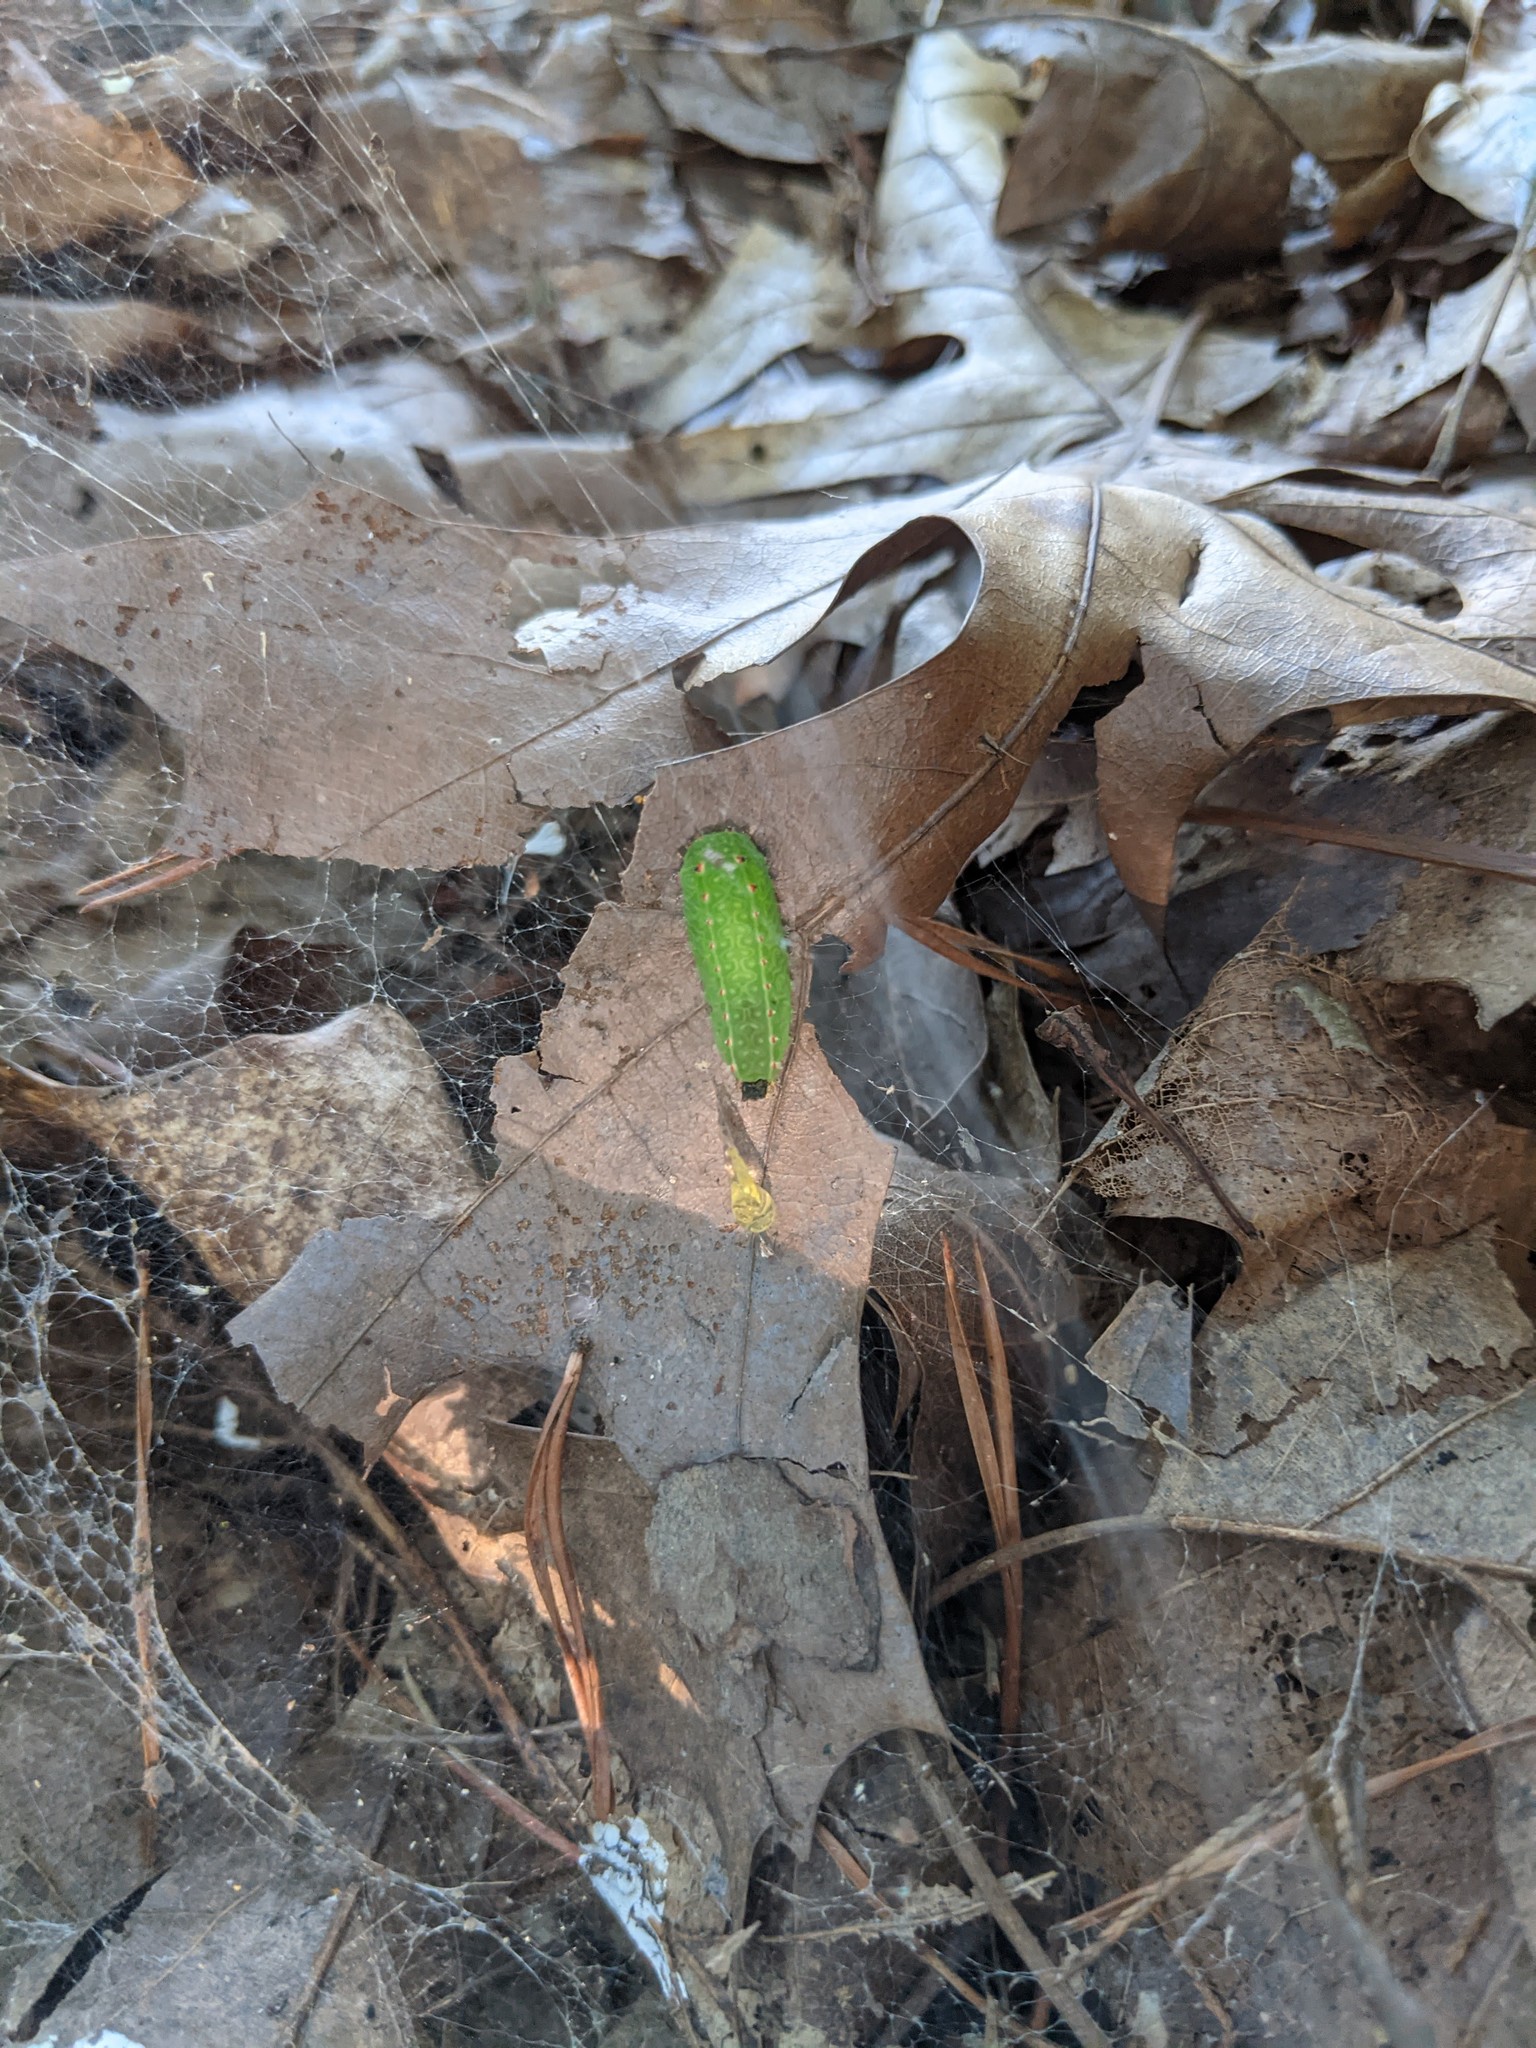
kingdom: Animalia
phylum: Arthropoda
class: Insecta
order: Lepidoptera
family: Limacodidae
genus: Natada
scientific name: Natada nasoni
